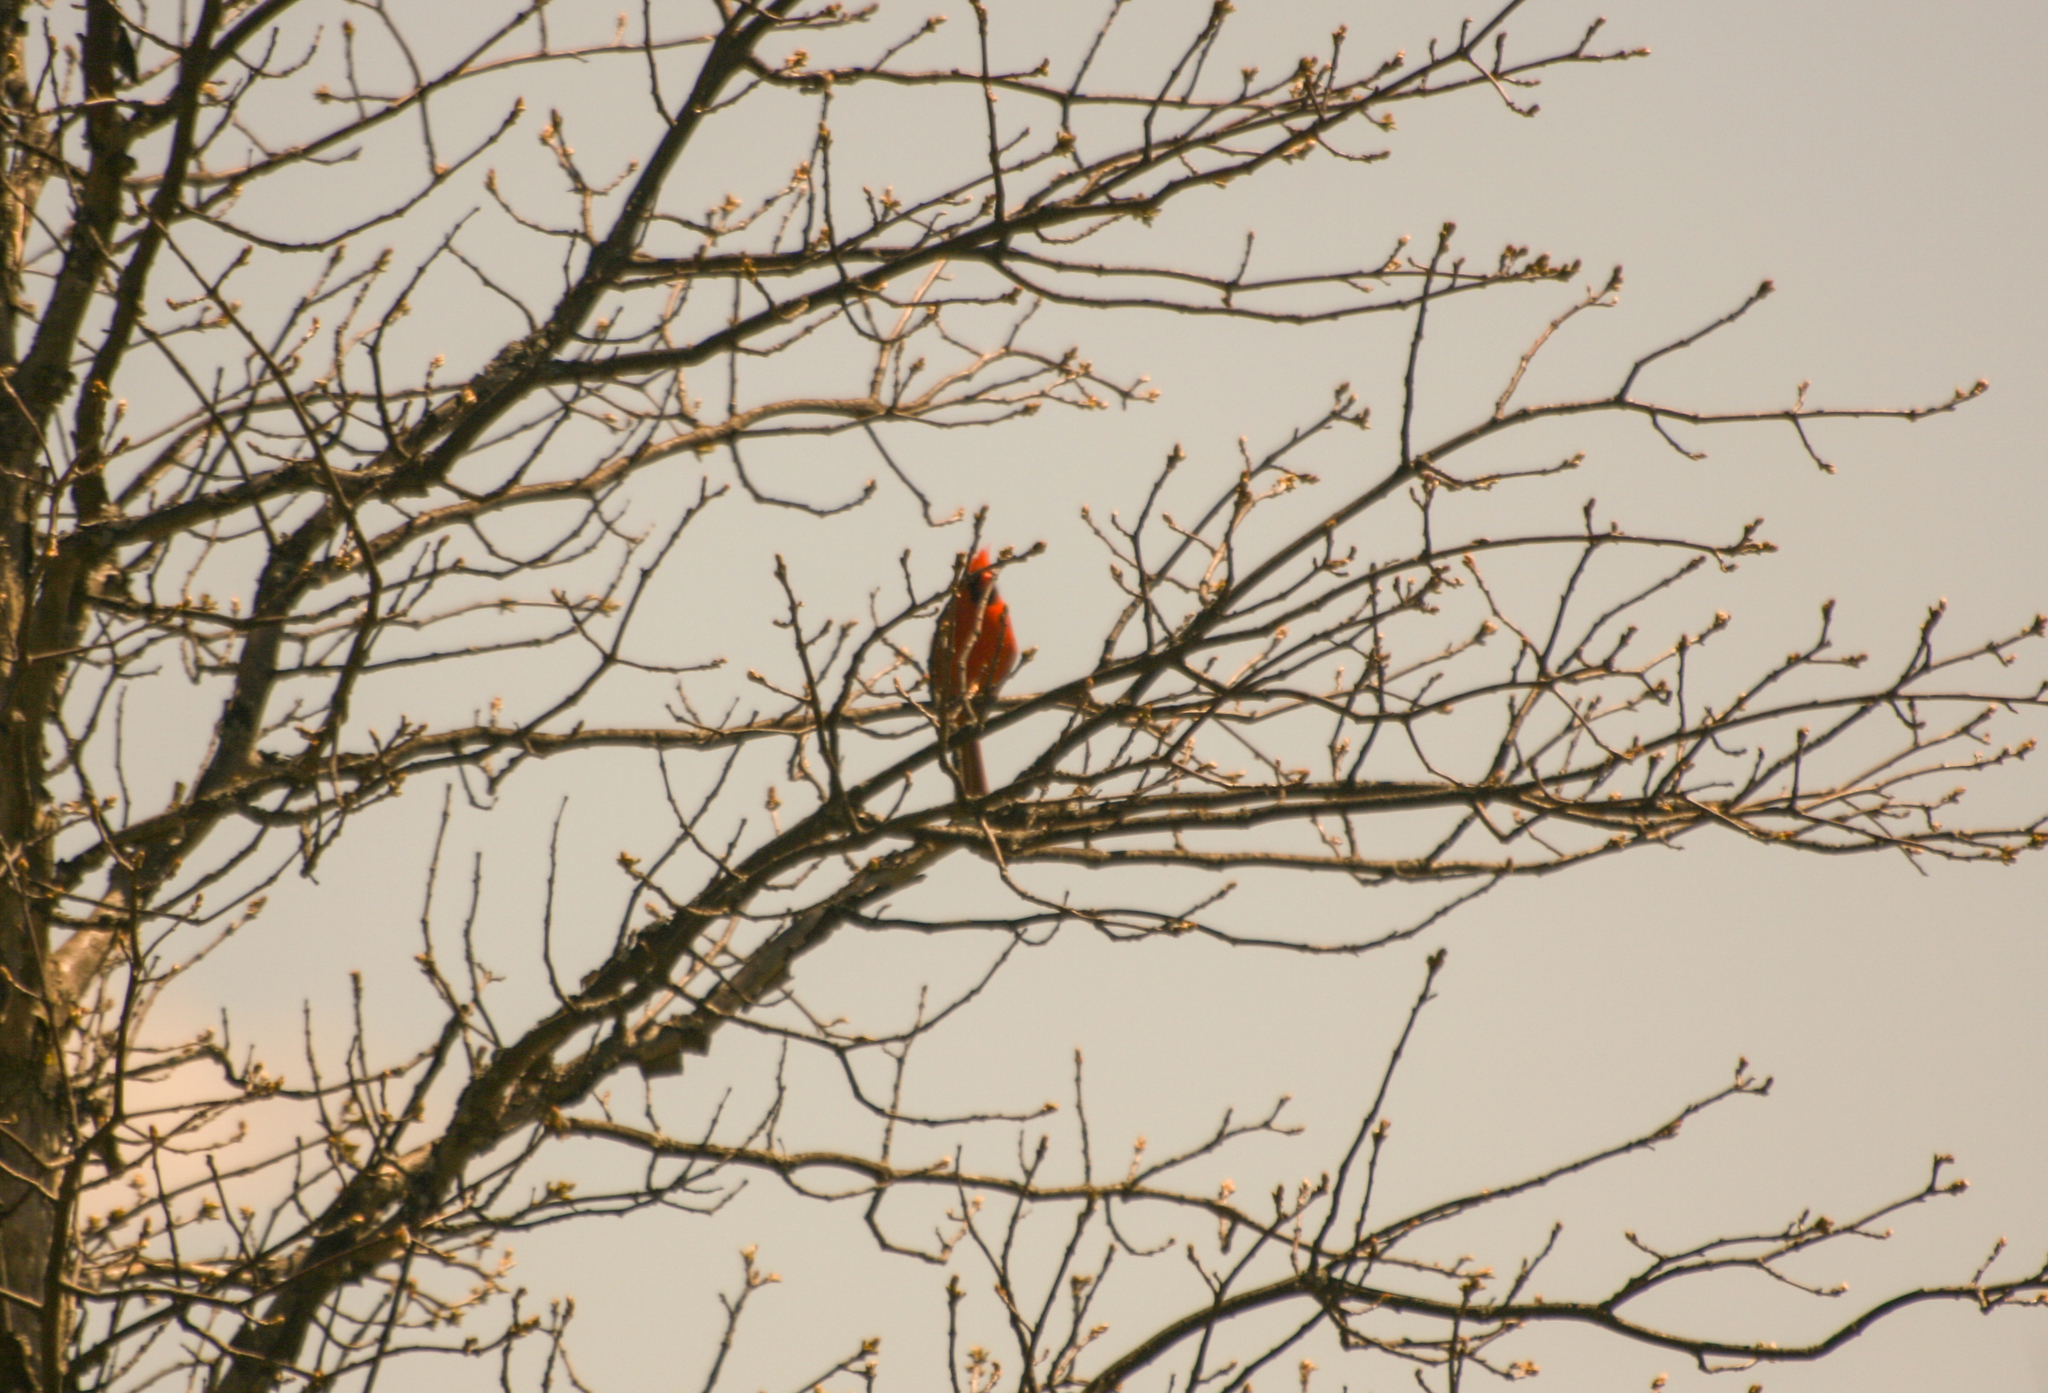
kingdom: Animalia
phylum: Chordata
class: Aves
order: Passeriformes
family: Cardinalidae
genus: Cardinalis
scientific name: Cardinalis cardinalis
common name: Northern cardinal
